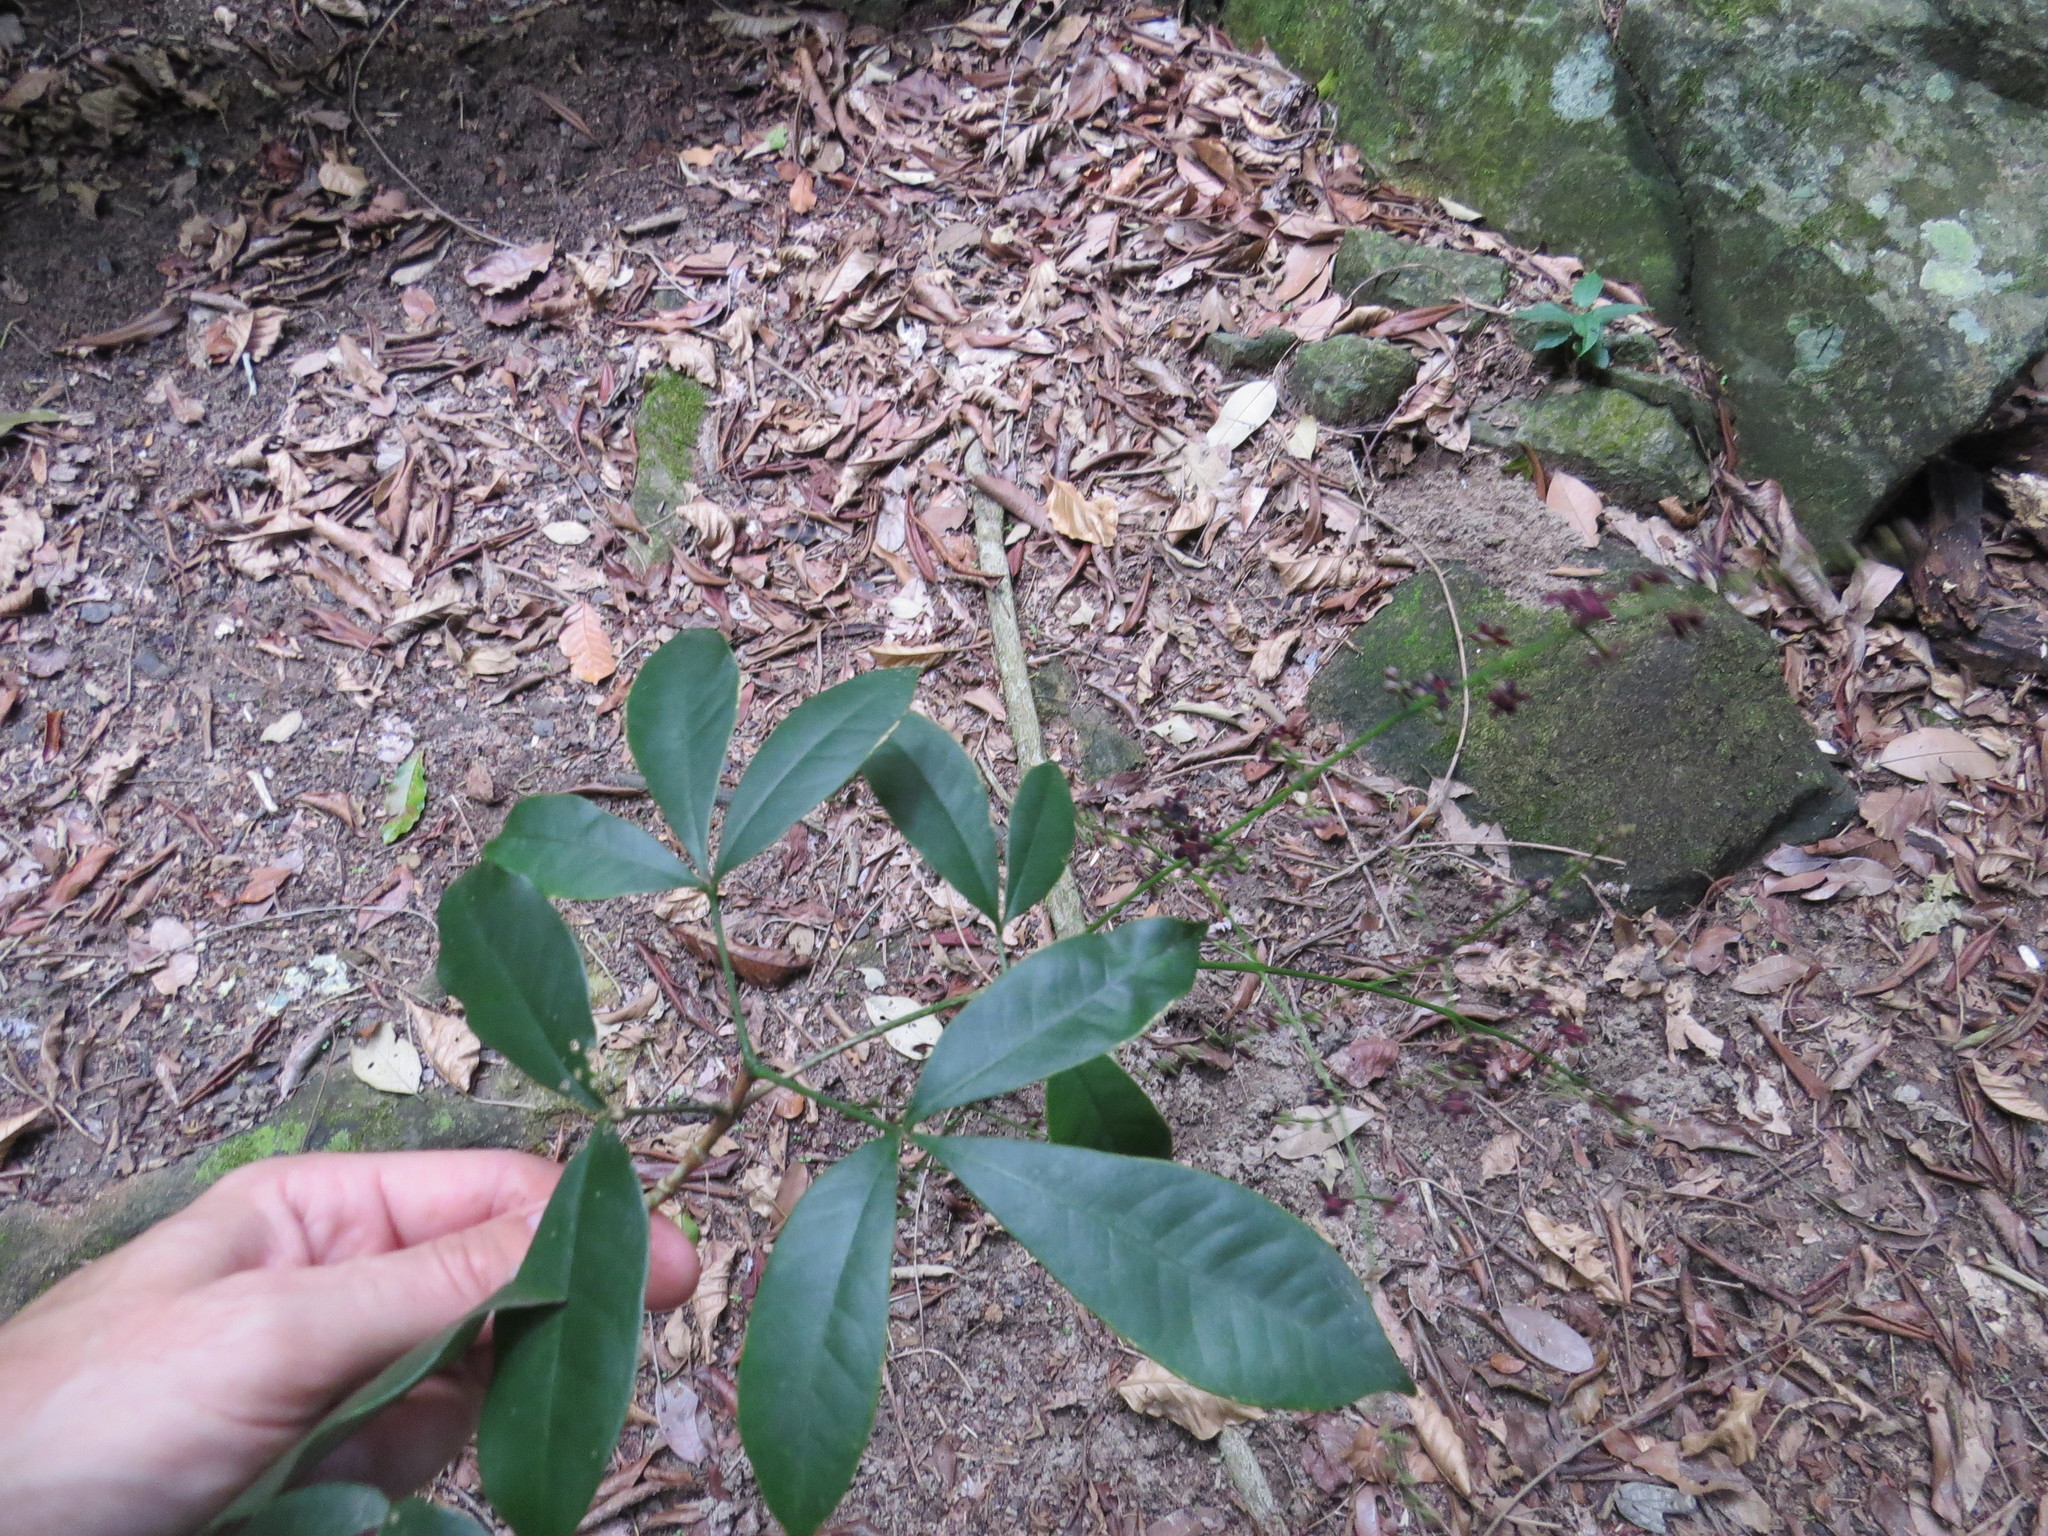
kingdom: Plantae
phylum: Tracheophyta
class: Magnoliopsida
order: Sapindales
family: Rutaceae
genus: Metrodorea
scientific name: Metrodorea nigra
